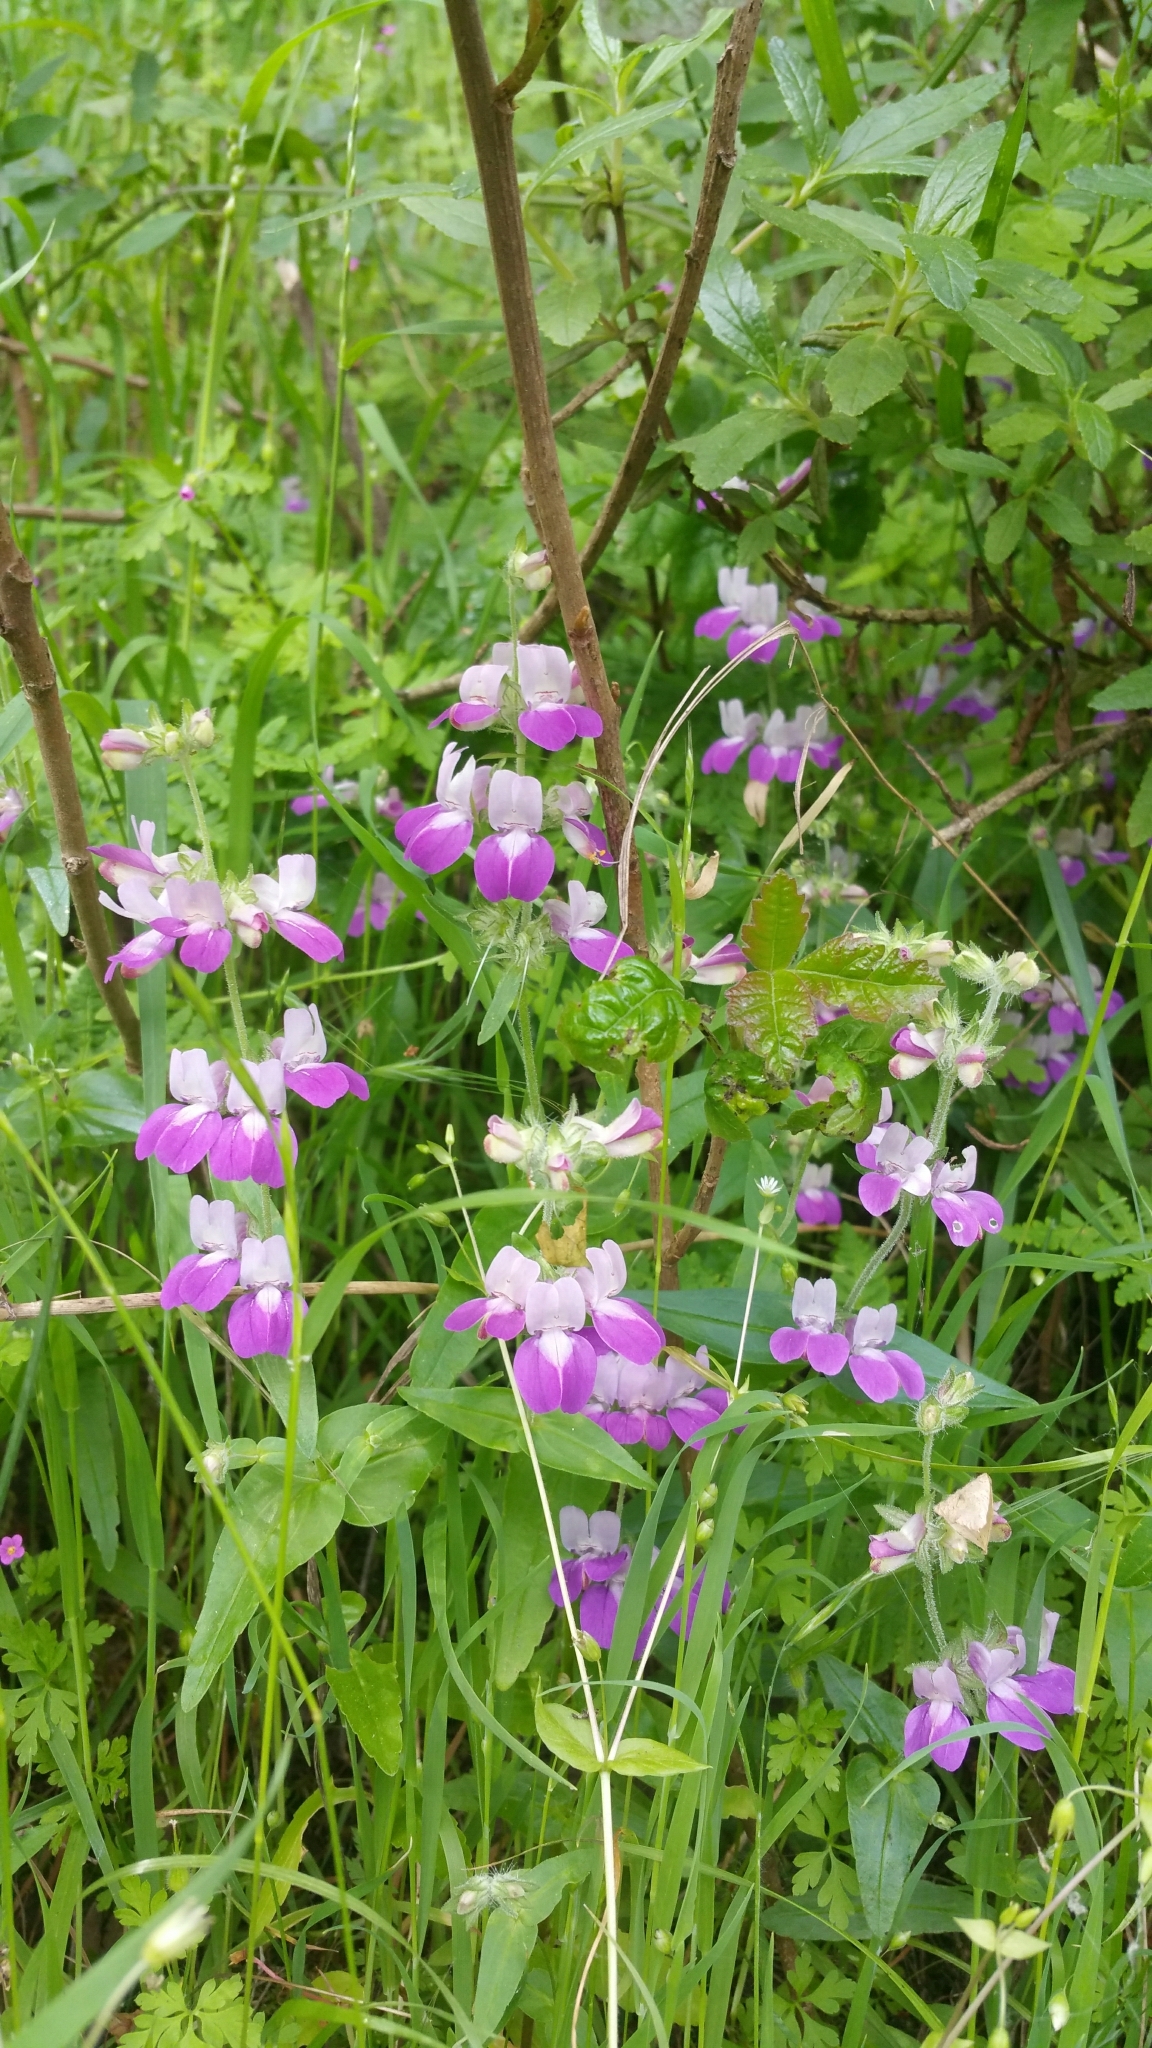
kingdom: Plantae
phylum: Tracheophyta
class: Magnoliopsida
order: Lamiales
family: Plantaginaceae
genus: Collinsia
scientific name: Collinsia heterophylla
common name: Chinese-houses
